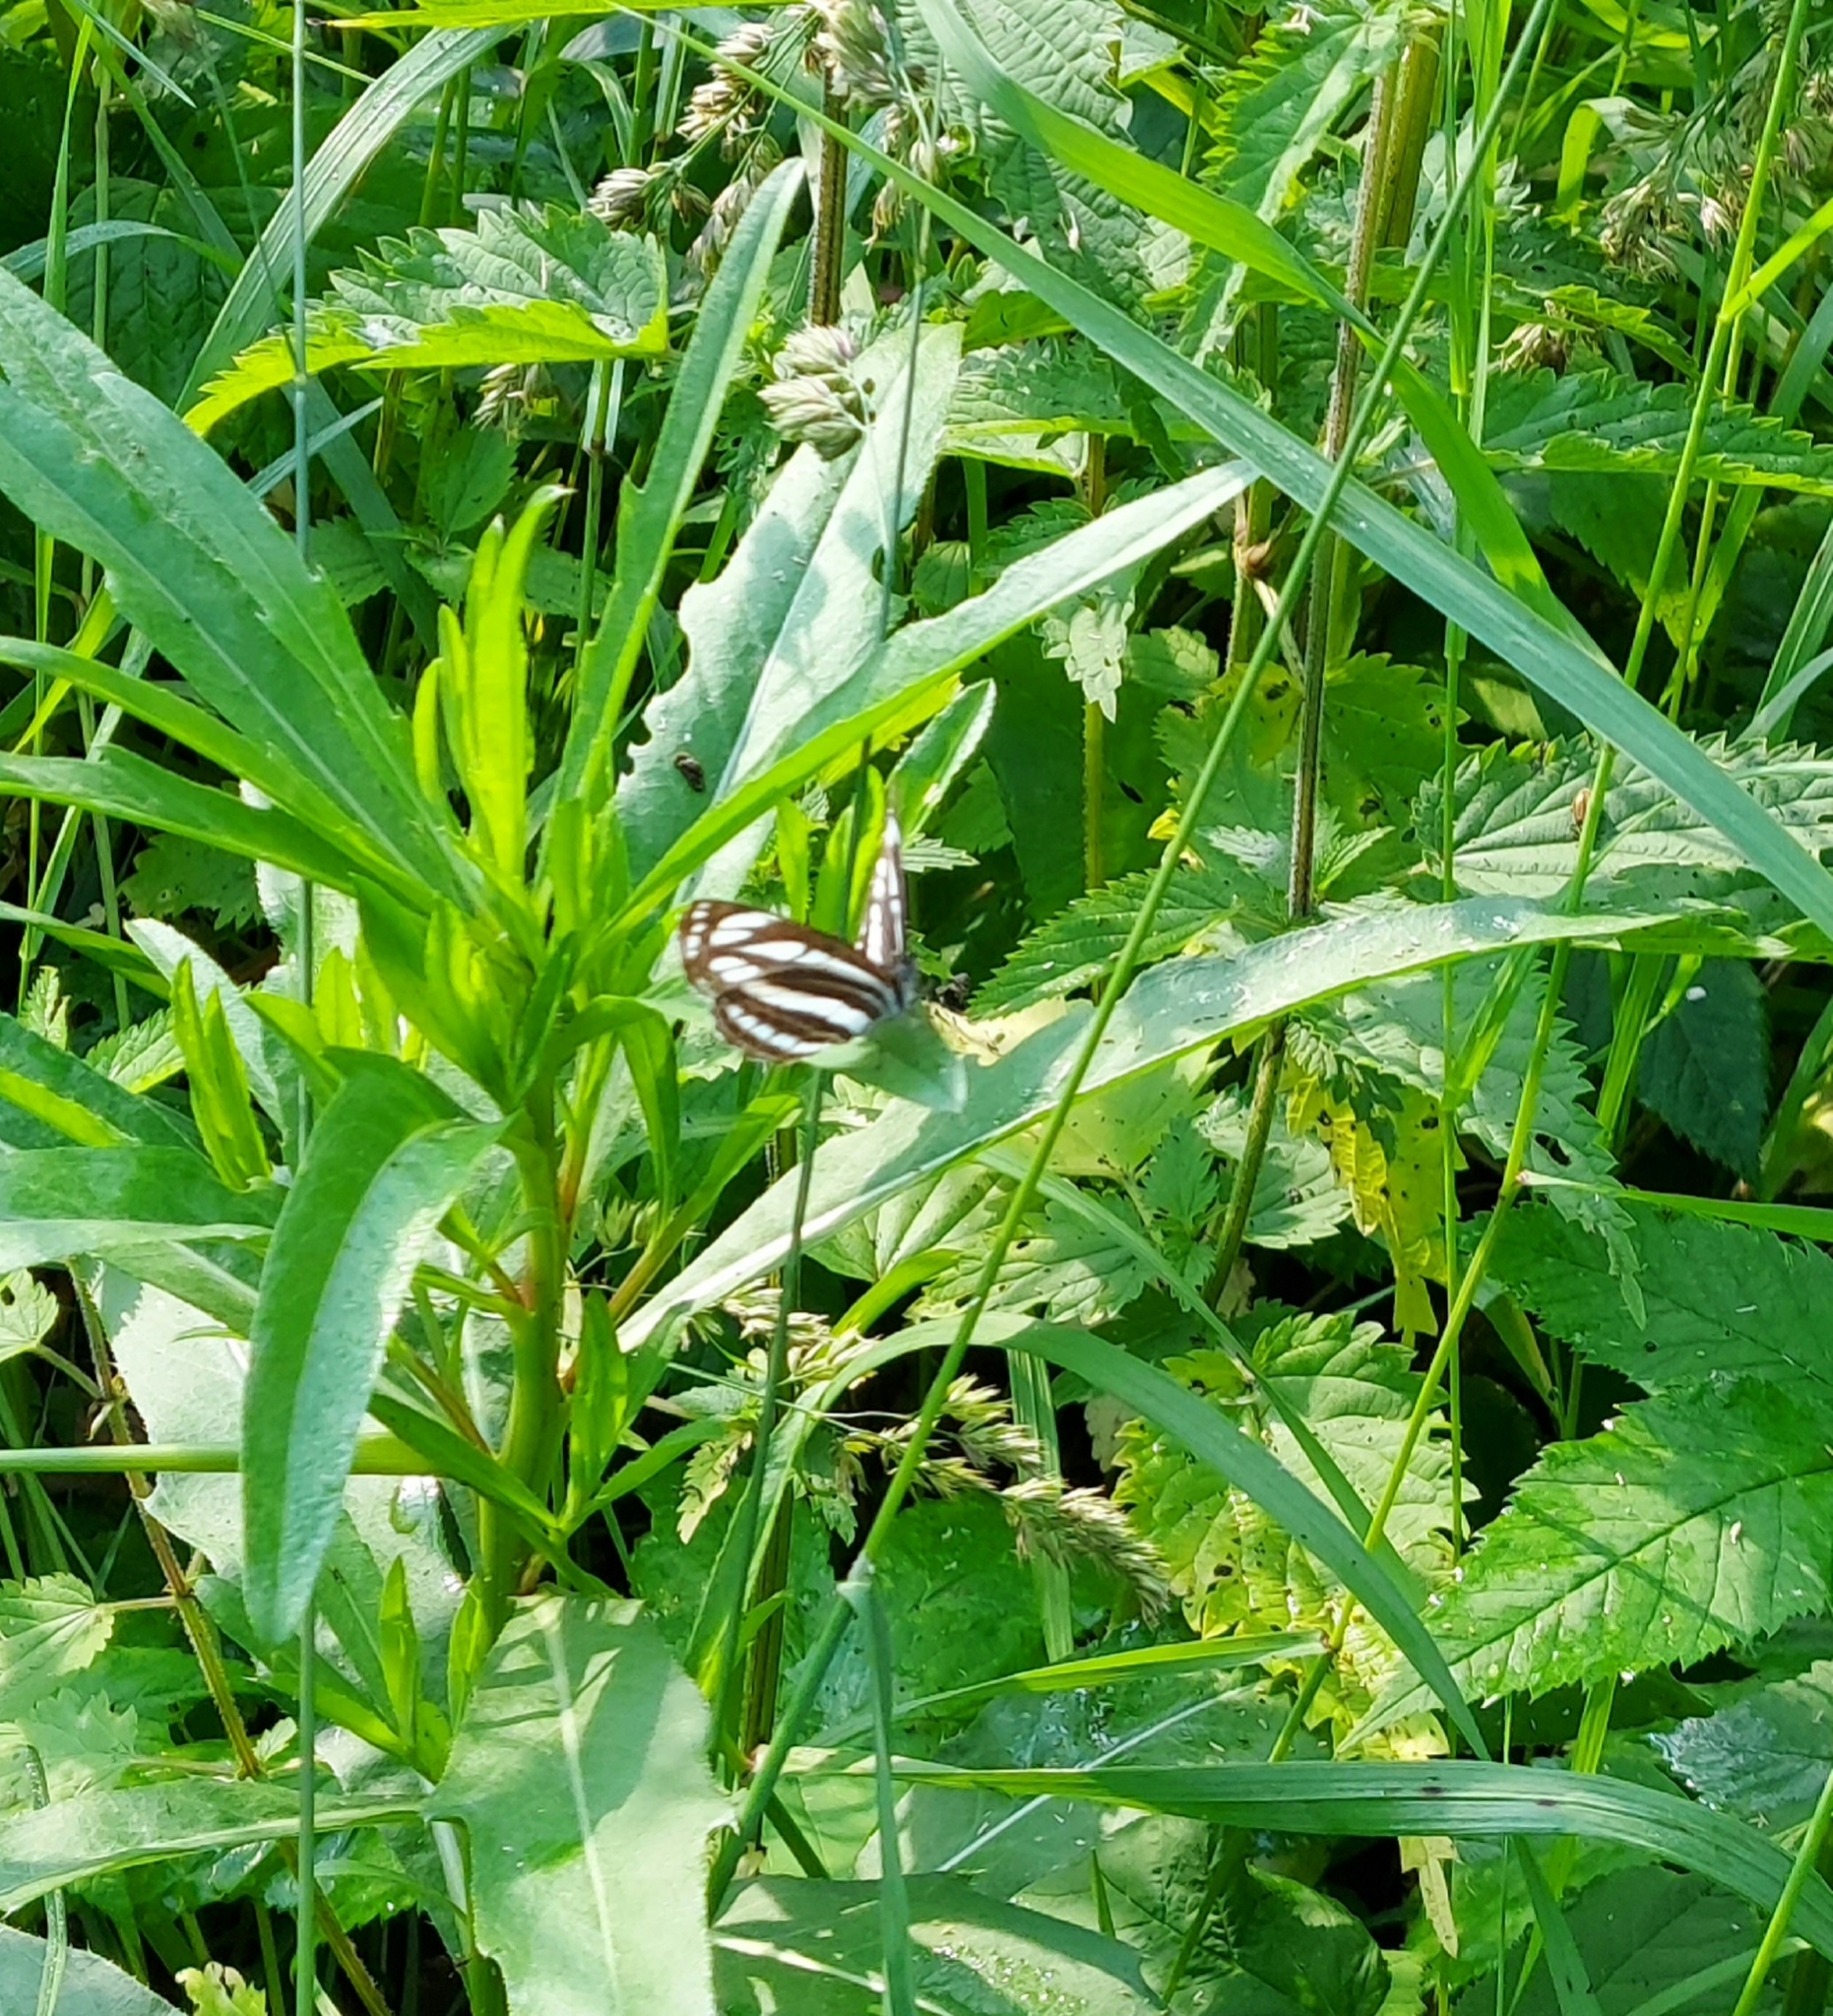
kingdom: Animalia
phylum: Arthropoda
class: Insecta
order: Lepidoptera
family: Nymphalidae
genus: Neptis
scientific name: Neptis sappho
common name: Common glider
